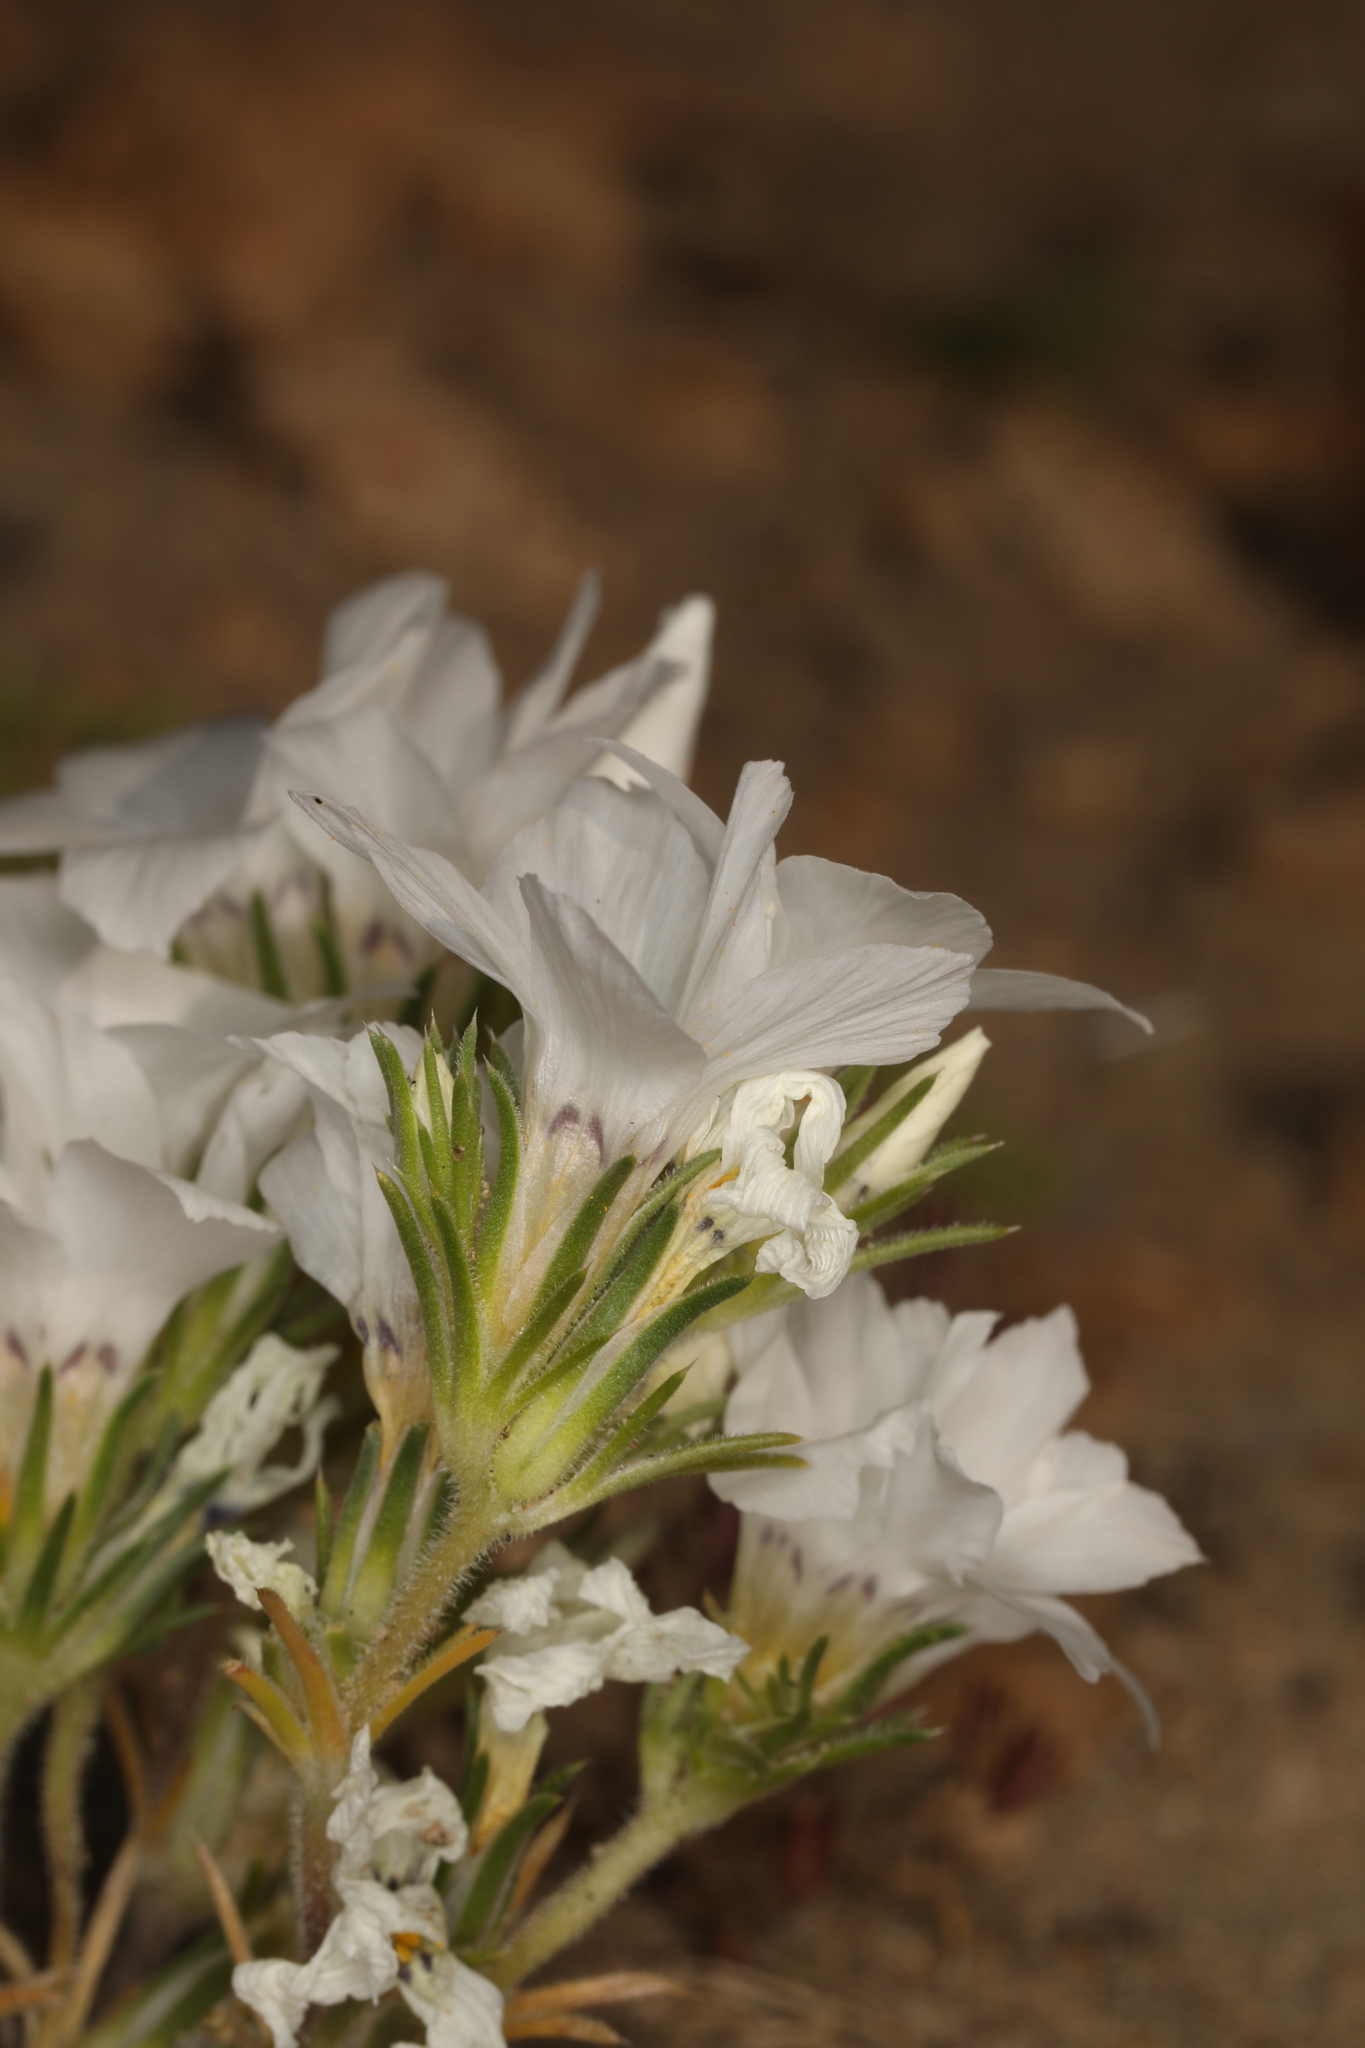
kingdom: Plantae
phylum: Tracheophyta
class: Magnoliopsida
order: Ericales
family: Polemoniaceae
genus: Linanthus
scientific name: Linanthus parryae
